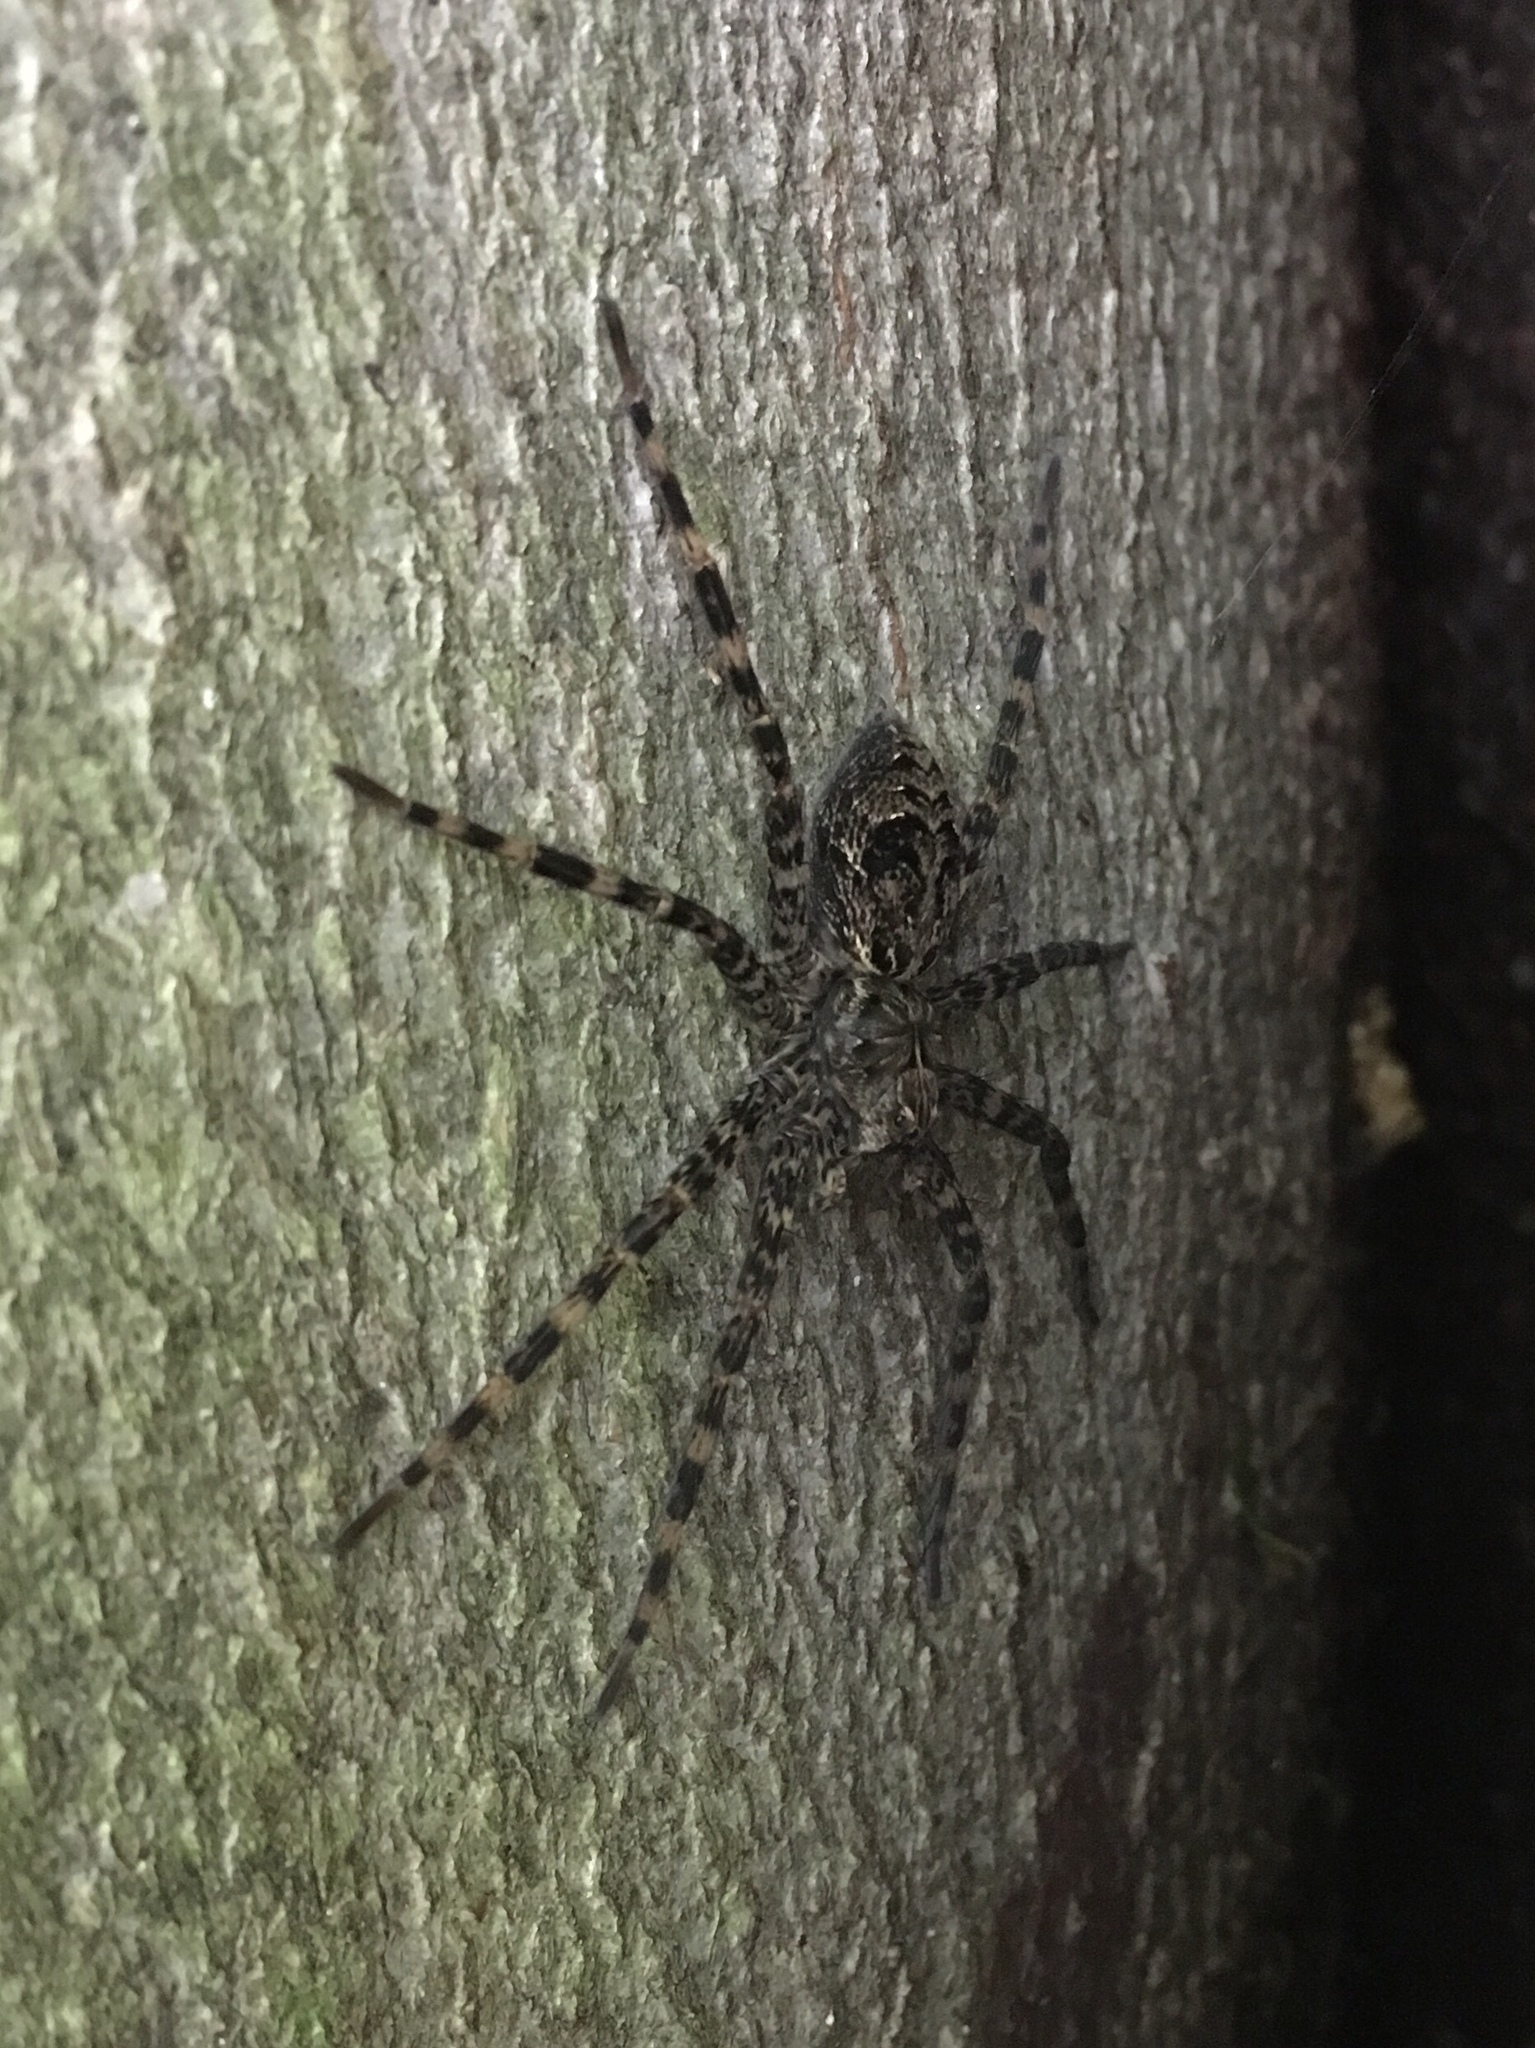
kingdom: Animalia
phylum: Arthropoda
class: Arachnida
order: Araneae
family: Pisauridae
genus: Dolomedes
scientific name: Dolomedes tenebrosus
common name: Dark fishing spider
